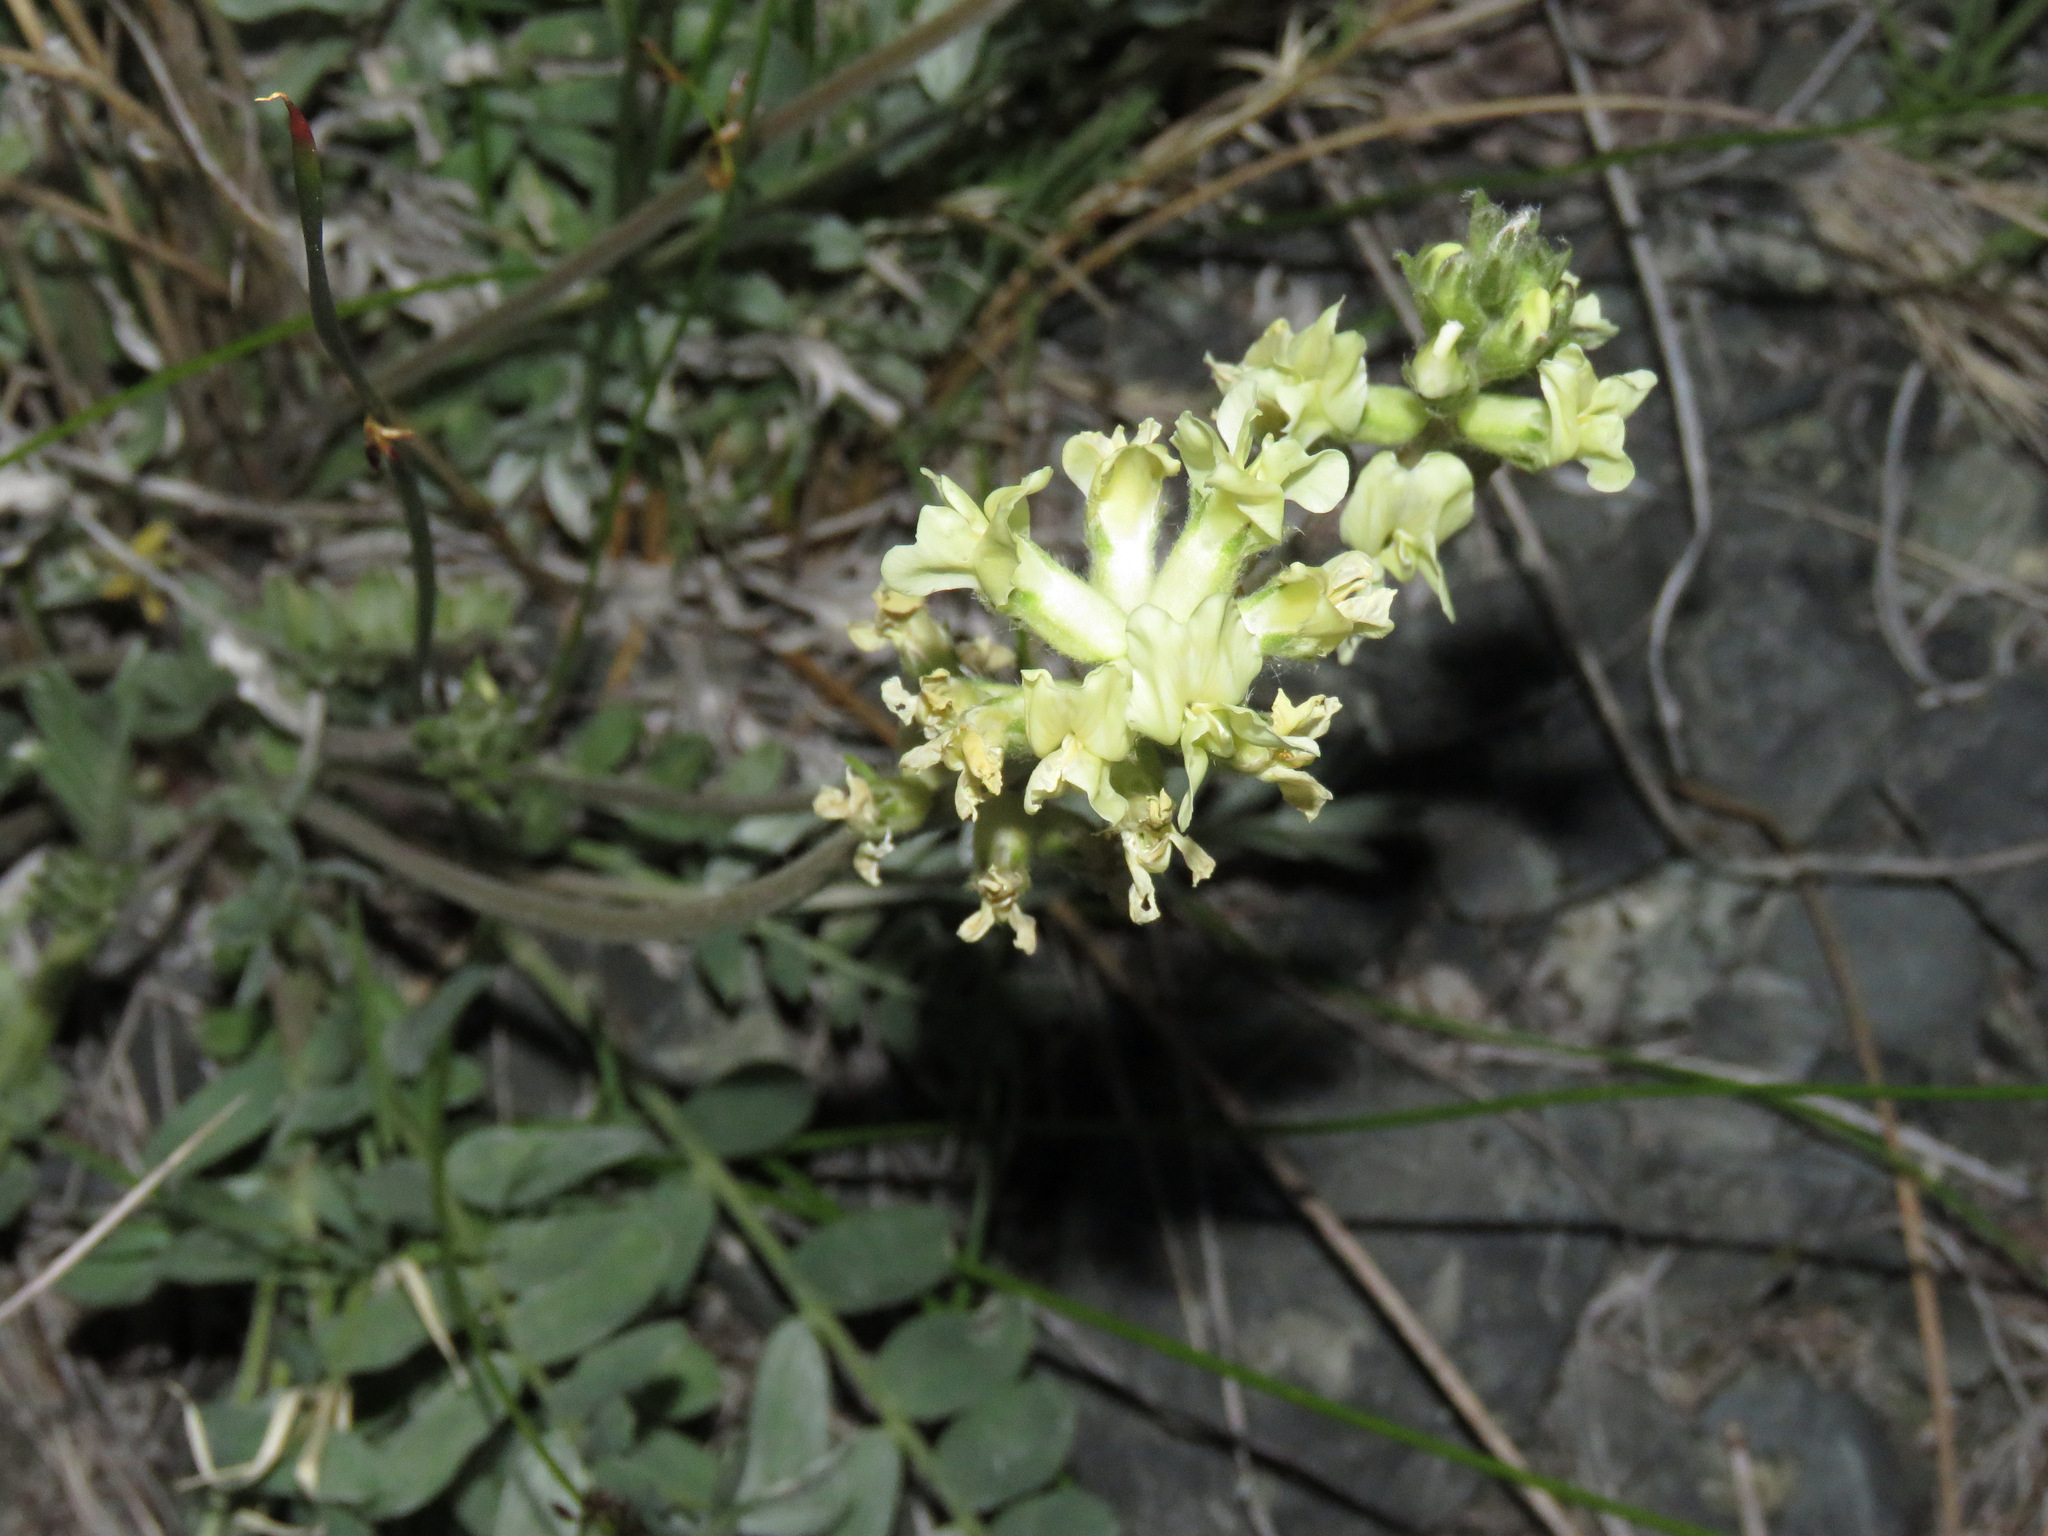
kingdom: Plantae
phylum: Tracheophyta
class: Magnoliopsida
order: Fabales
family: Fabaceae
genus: Oxytropis
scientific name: Oxytropis campestris
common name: Field locoweed
